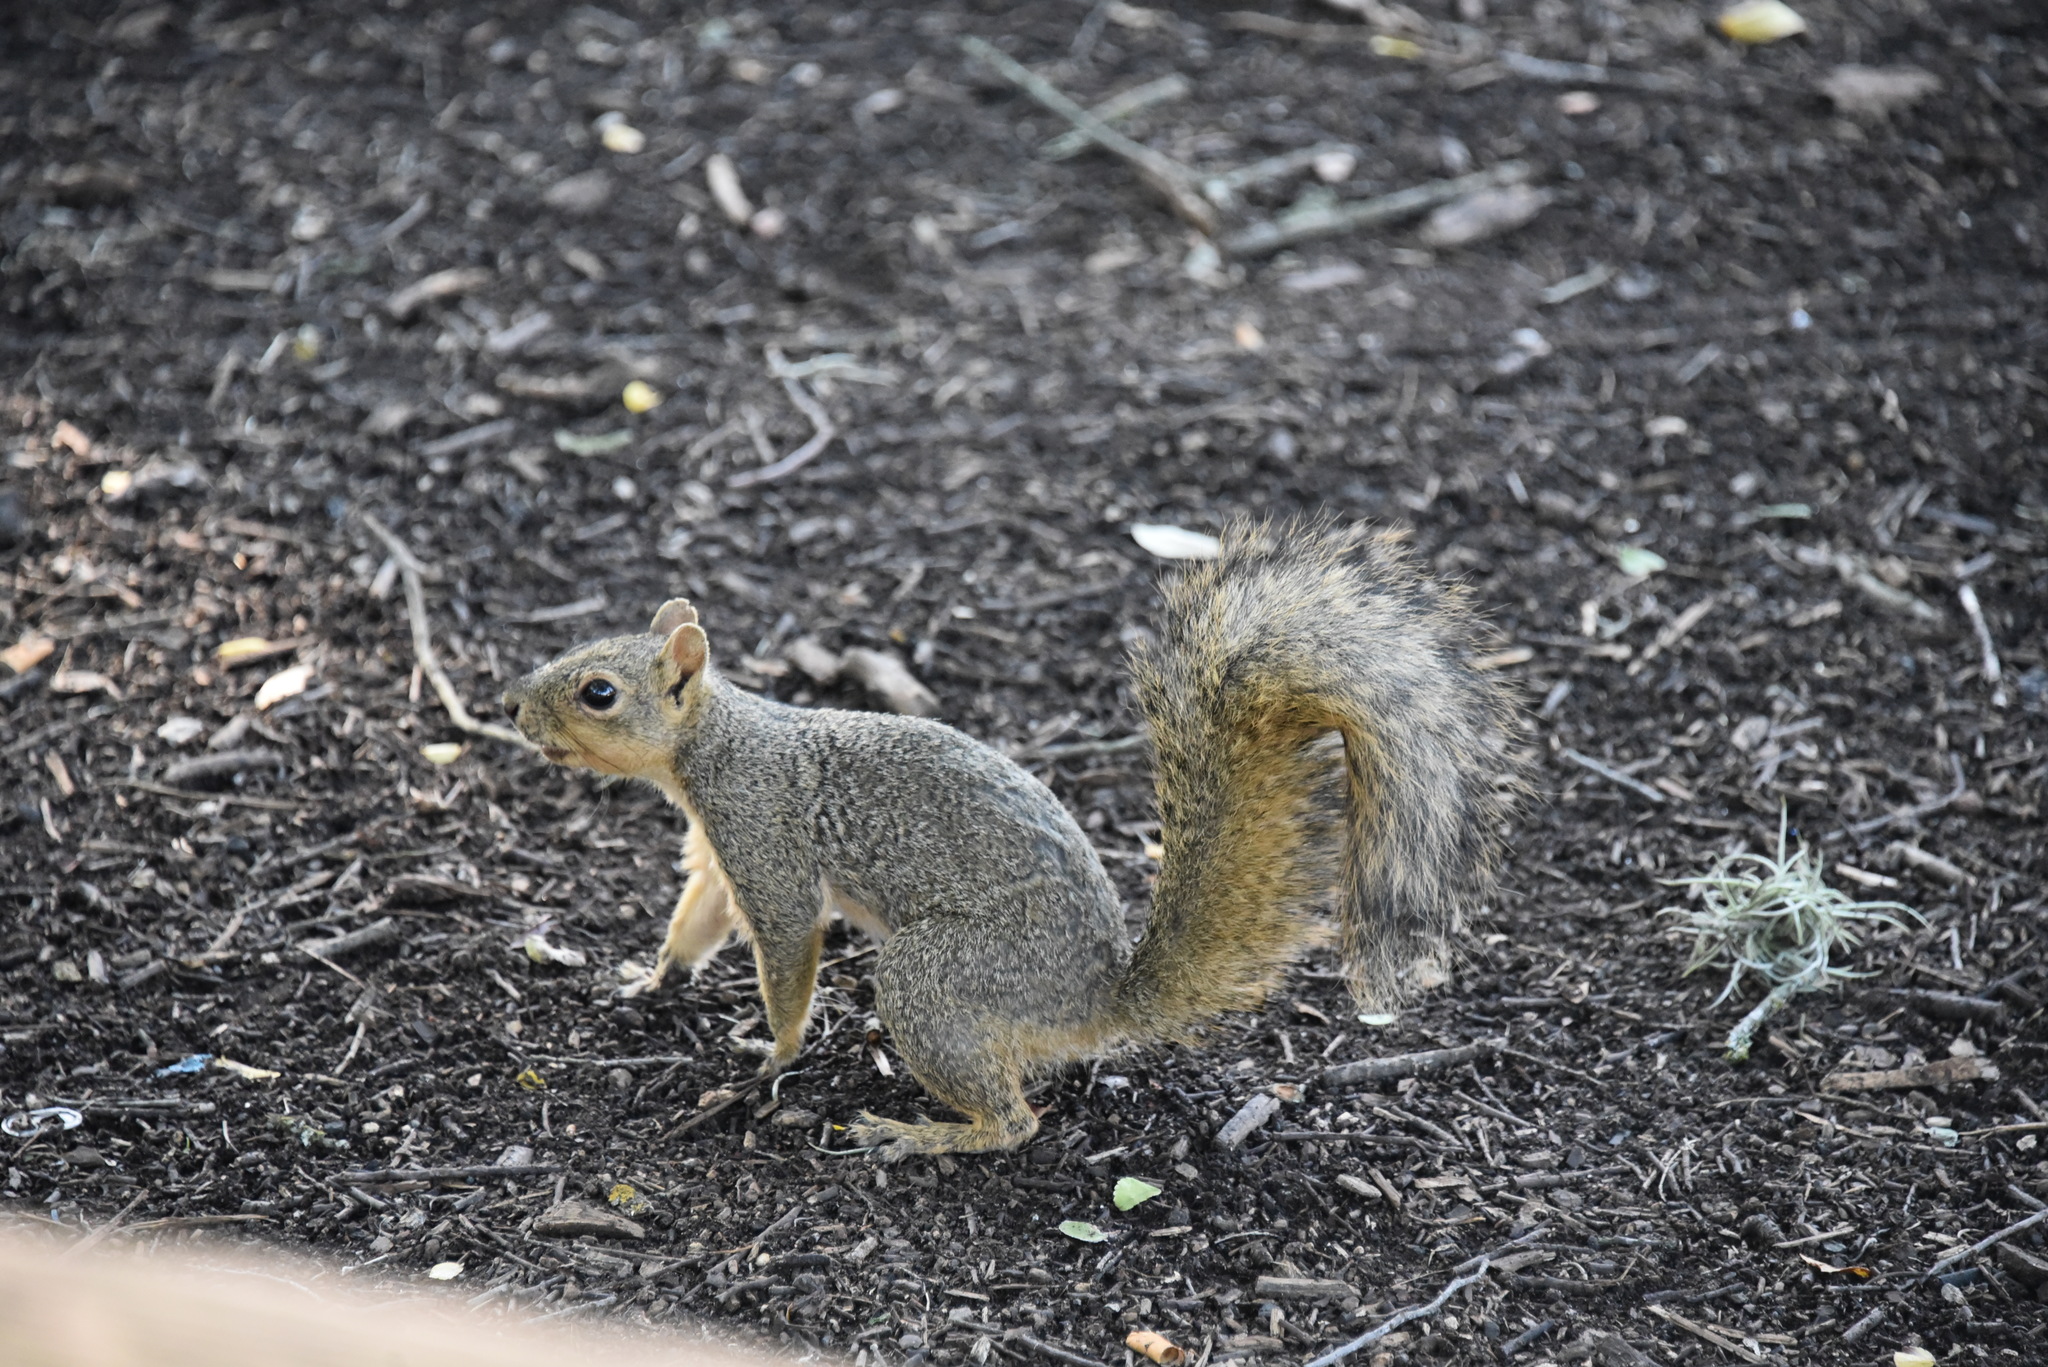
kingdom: Animalia
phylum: Chordata
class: Mammalia
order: Rodentia
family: Sciuridae
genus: Sciurus
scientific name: Sciurus niger
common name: Fox squirrel
